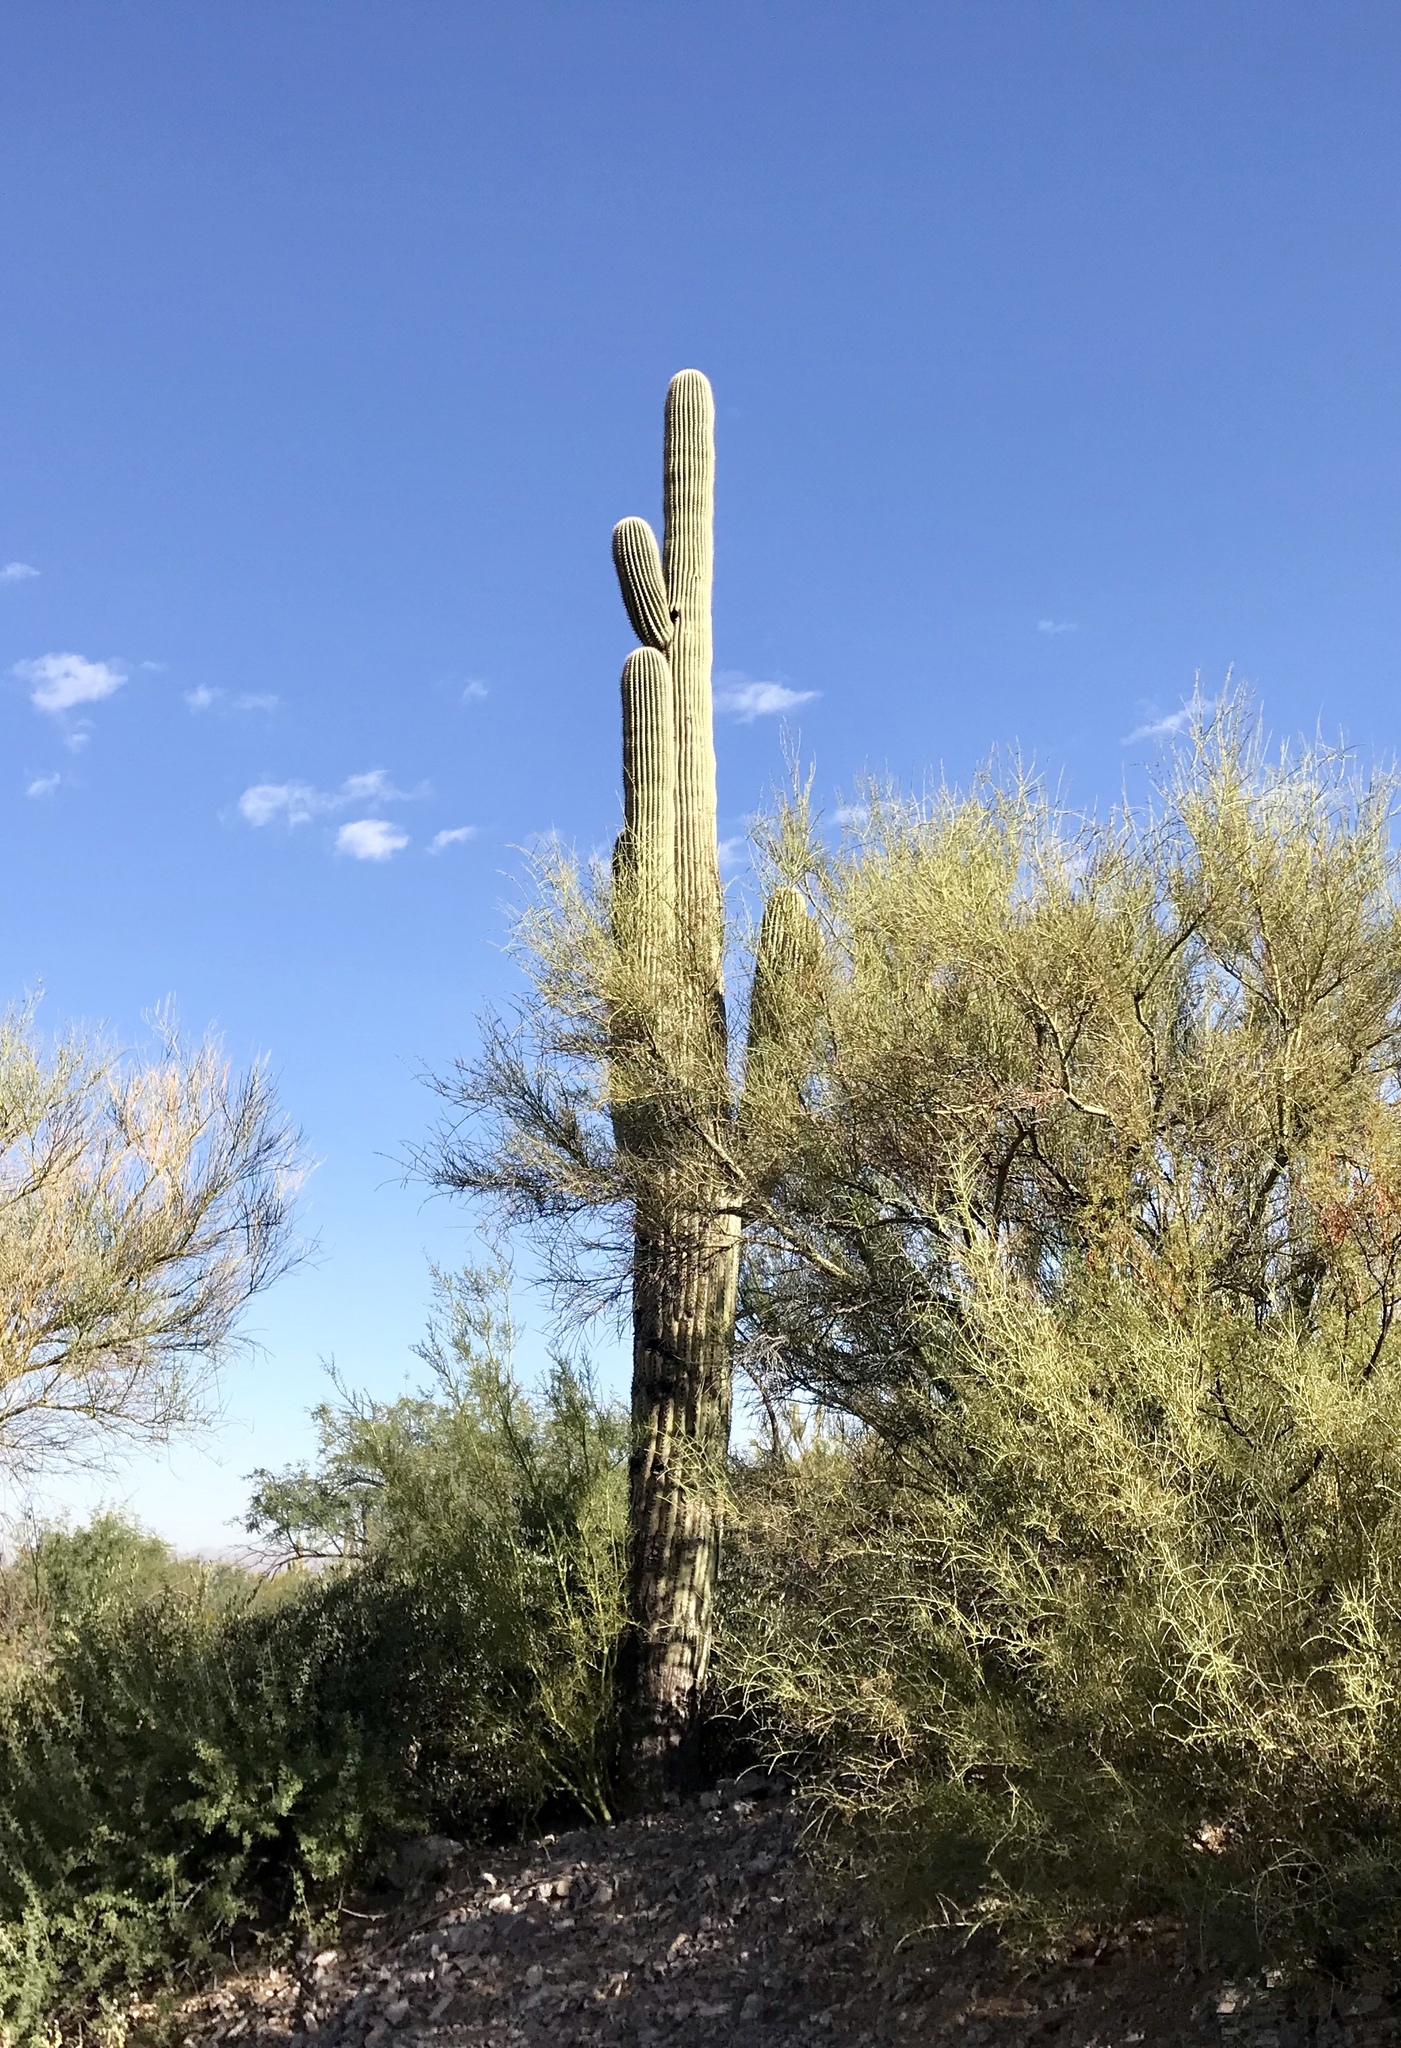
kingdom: Plantae
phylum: Tracheophyta
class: Magnoliopsida
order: Caryophyllales
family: Cactaceae
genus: Carnegiea
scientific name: Carnegiea gigantea
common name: Saguaro
